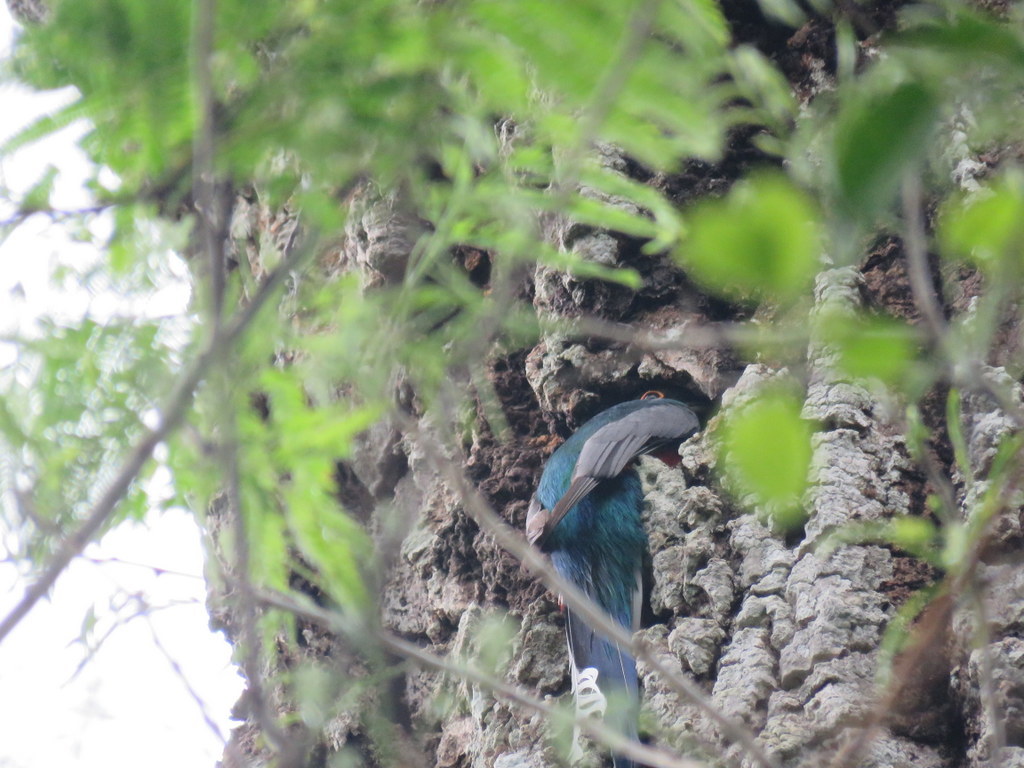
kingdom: Animalia
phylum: Chordata
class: Aves
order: Trogoniformes
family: Trogonidae
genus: Trogon
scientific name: Trogon surrucura
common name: Surucua trogon
